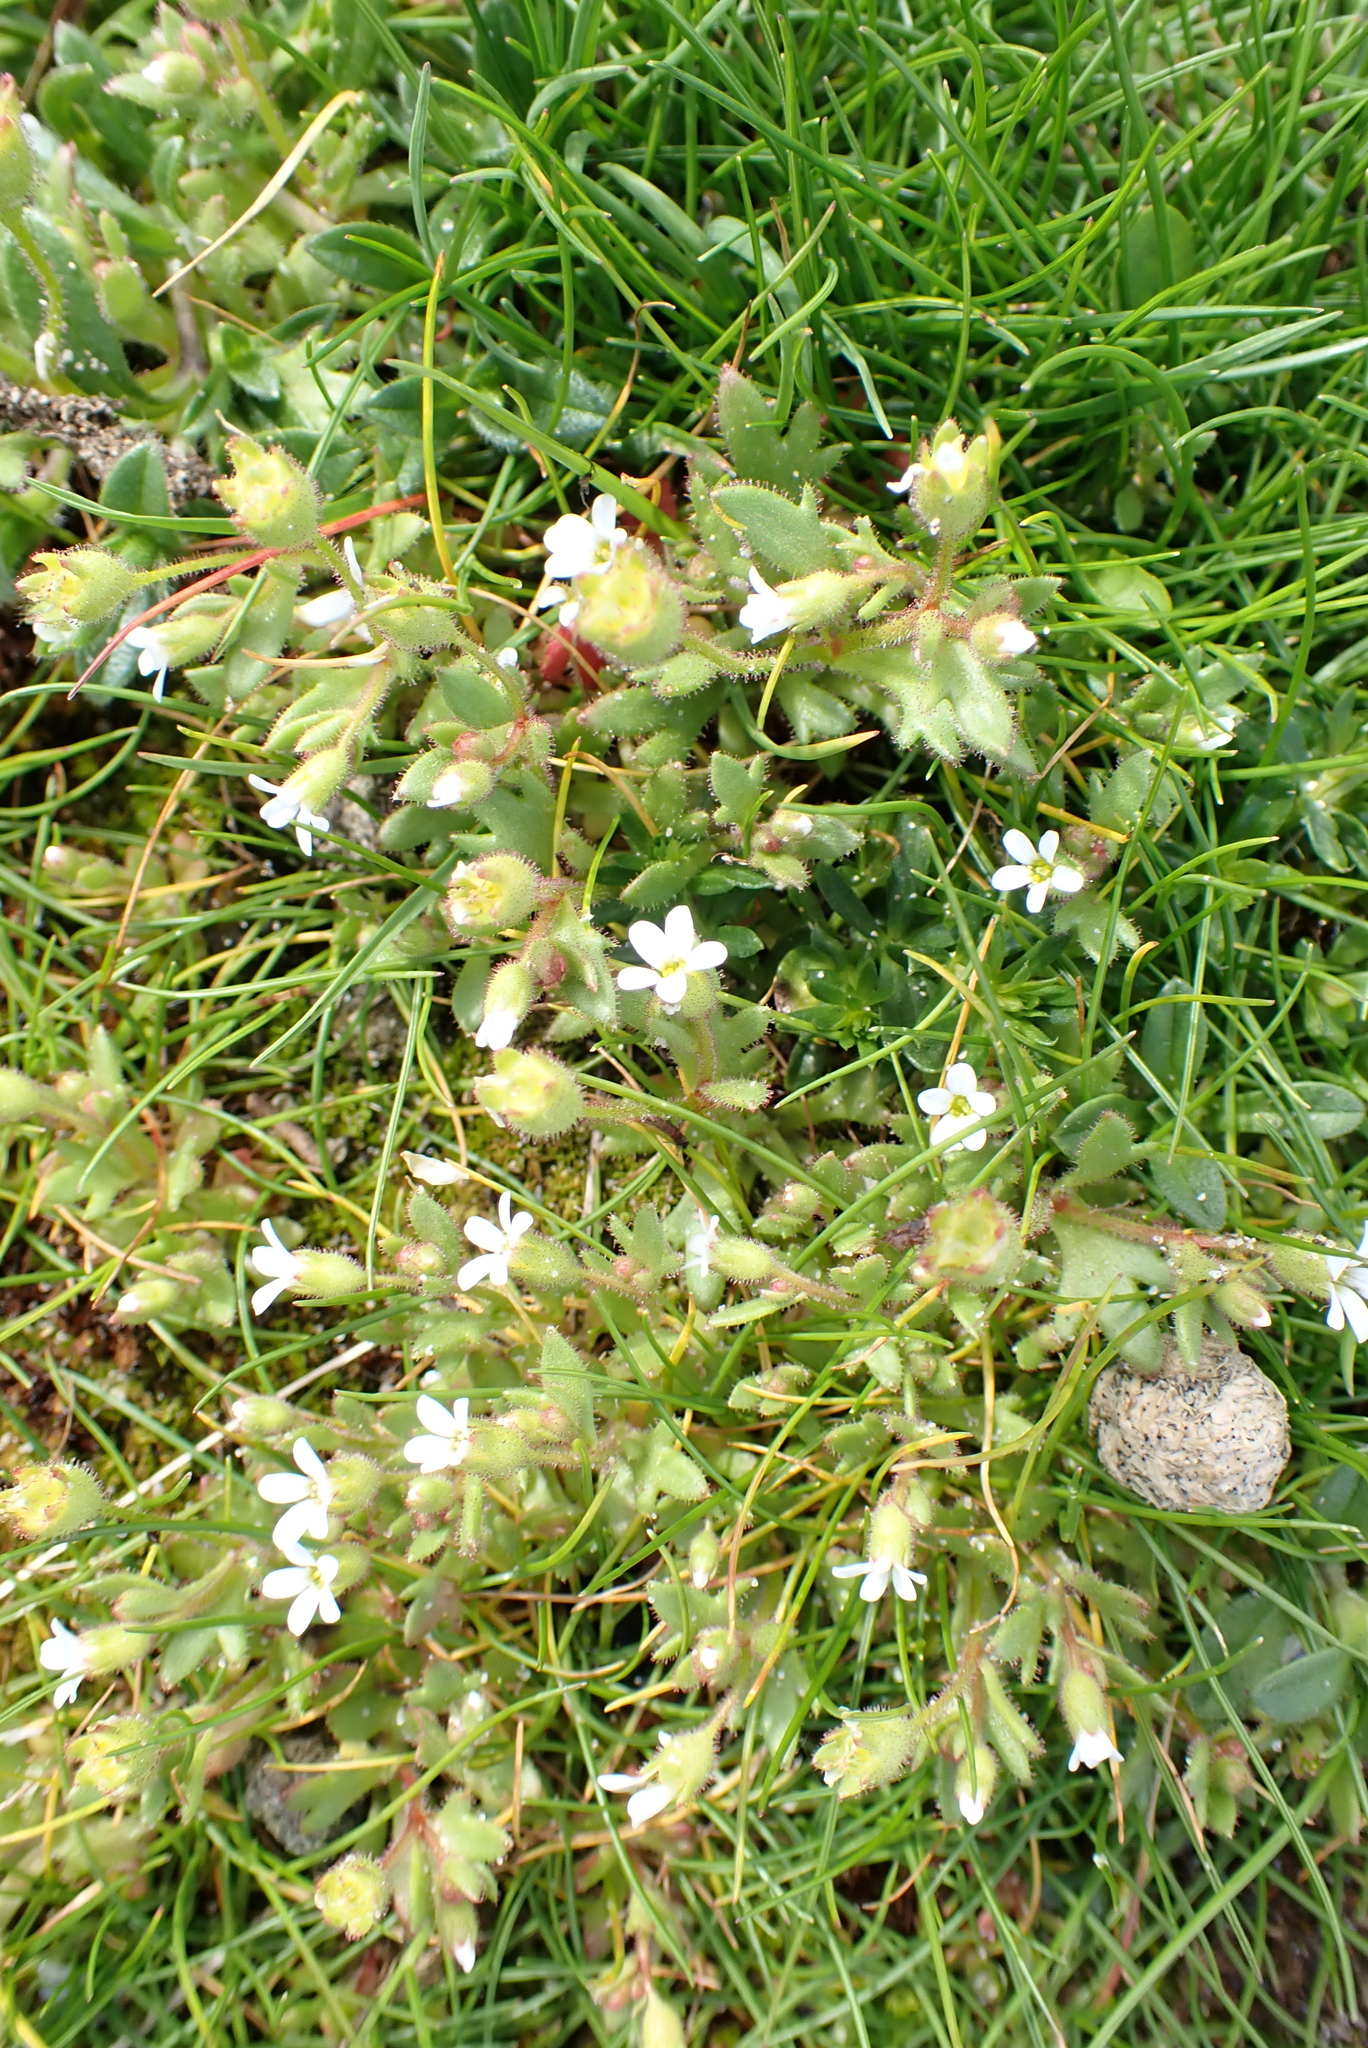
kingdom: Plantae
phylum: Tracheophyta
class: Magnoliopsida
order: Saxifragales
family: Saxifragaceae
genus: Saxifraga
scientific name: Saxifraga tridactylites
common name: Rue-leaved saxifrage
